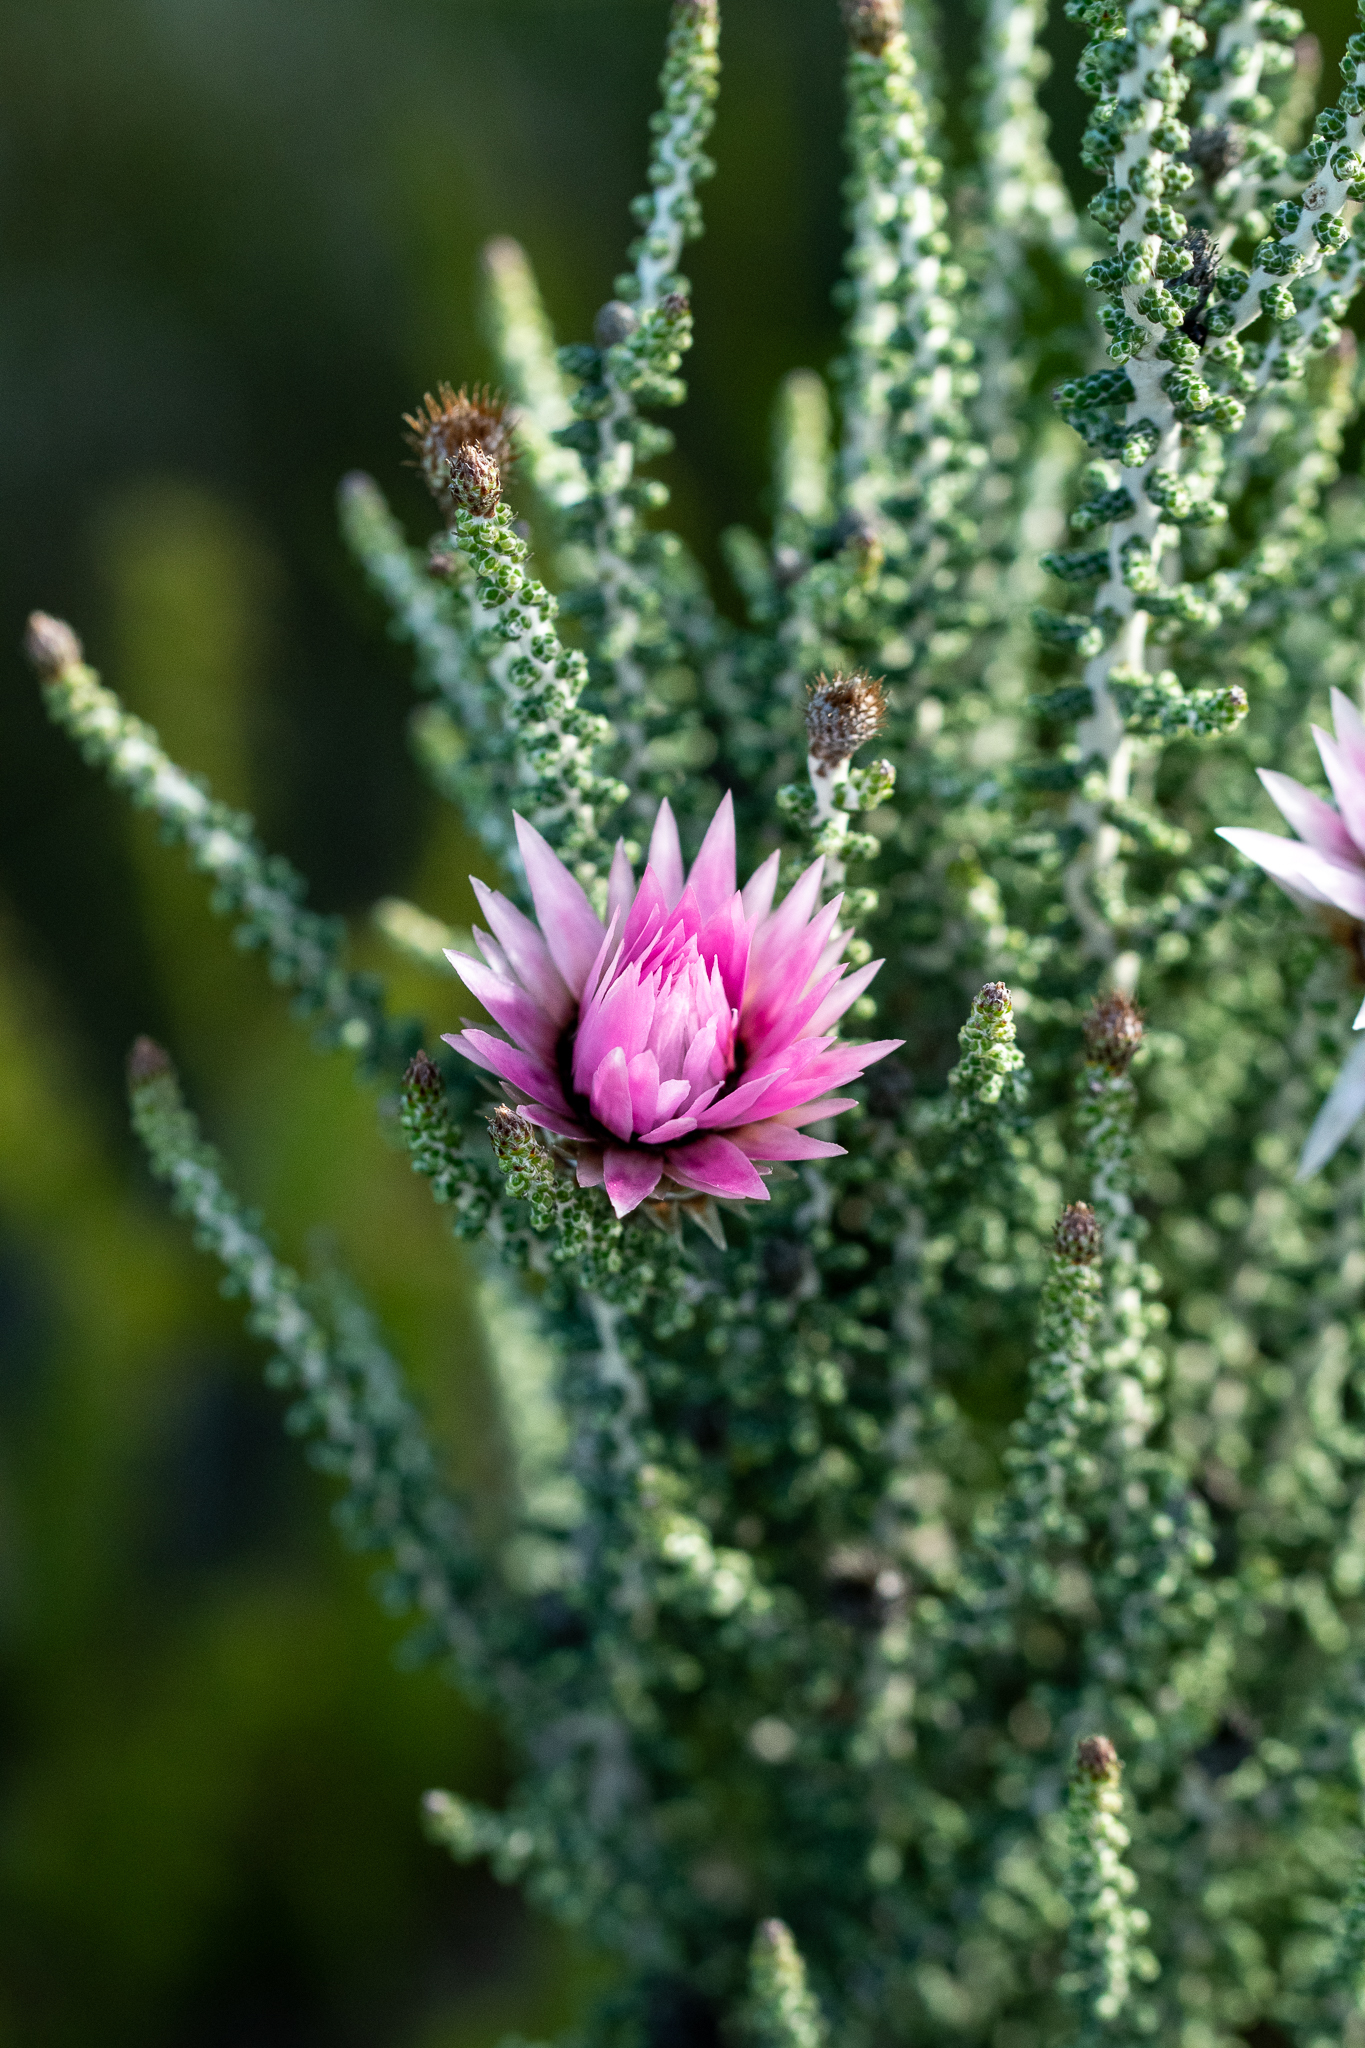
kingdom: Plantae
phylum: Tracheophyta
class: Magnoliopsida
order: Asterales
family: Asteraceae
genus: Phaenocoma
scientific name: Phaenocoma prolifera
